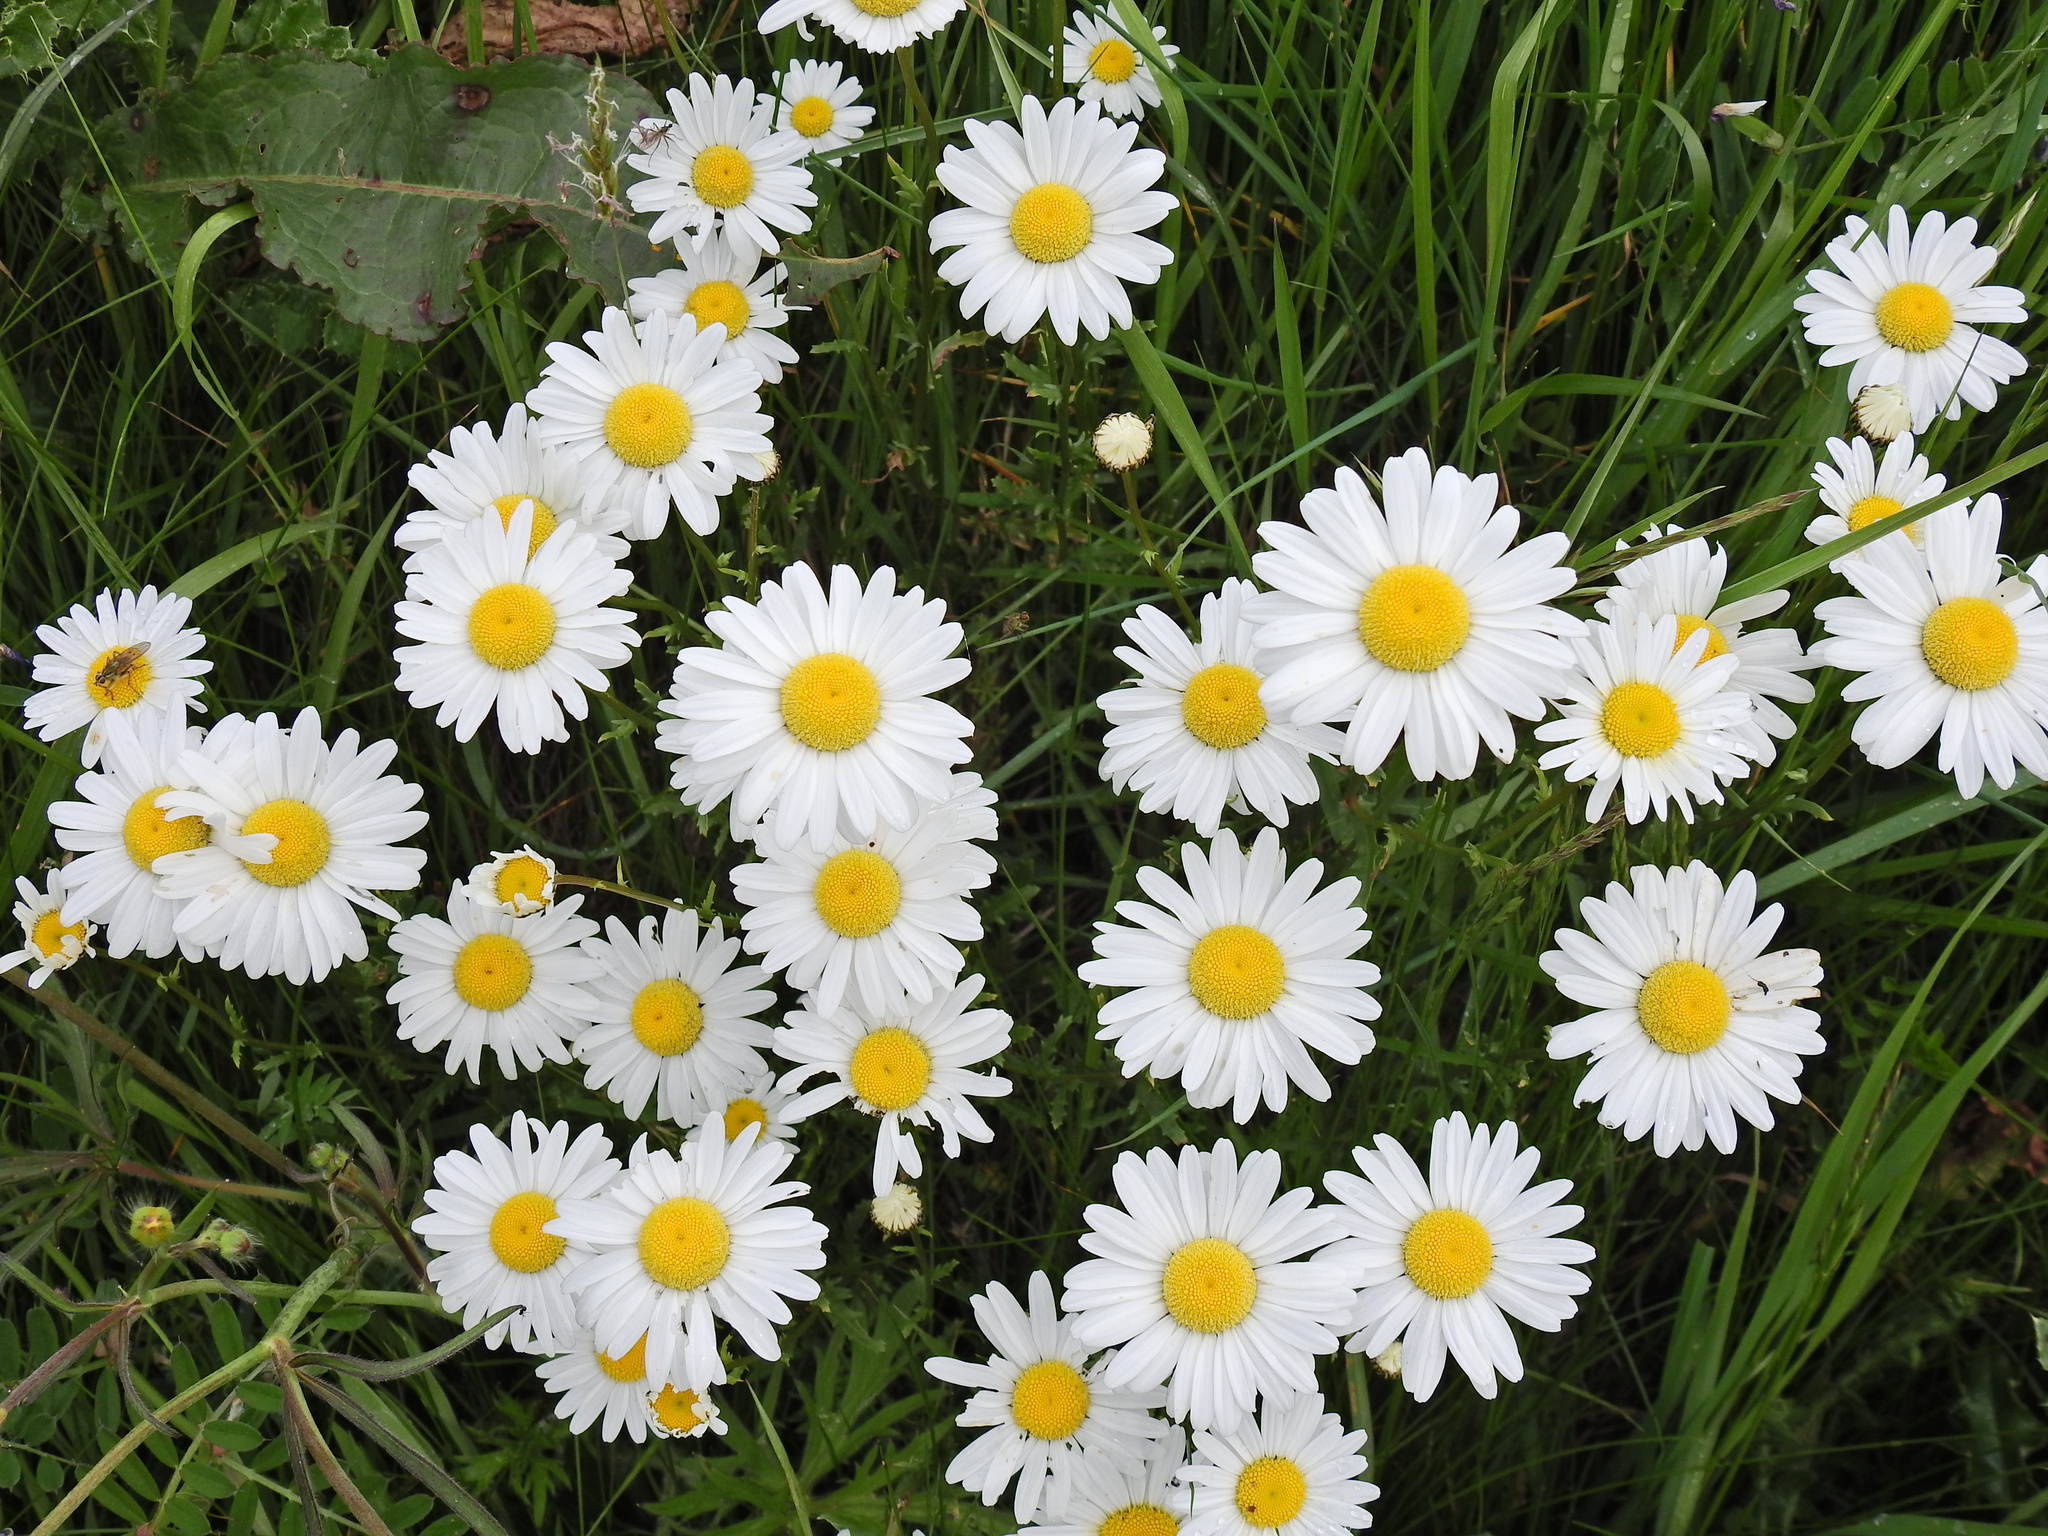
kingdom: Plantae
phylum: Tracheophyta
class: Magnoliopsida
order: Asterales
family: Asteraceae
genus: Leucanthemum
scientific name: Leucanthemum vulgare
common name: Oxeye daisy
